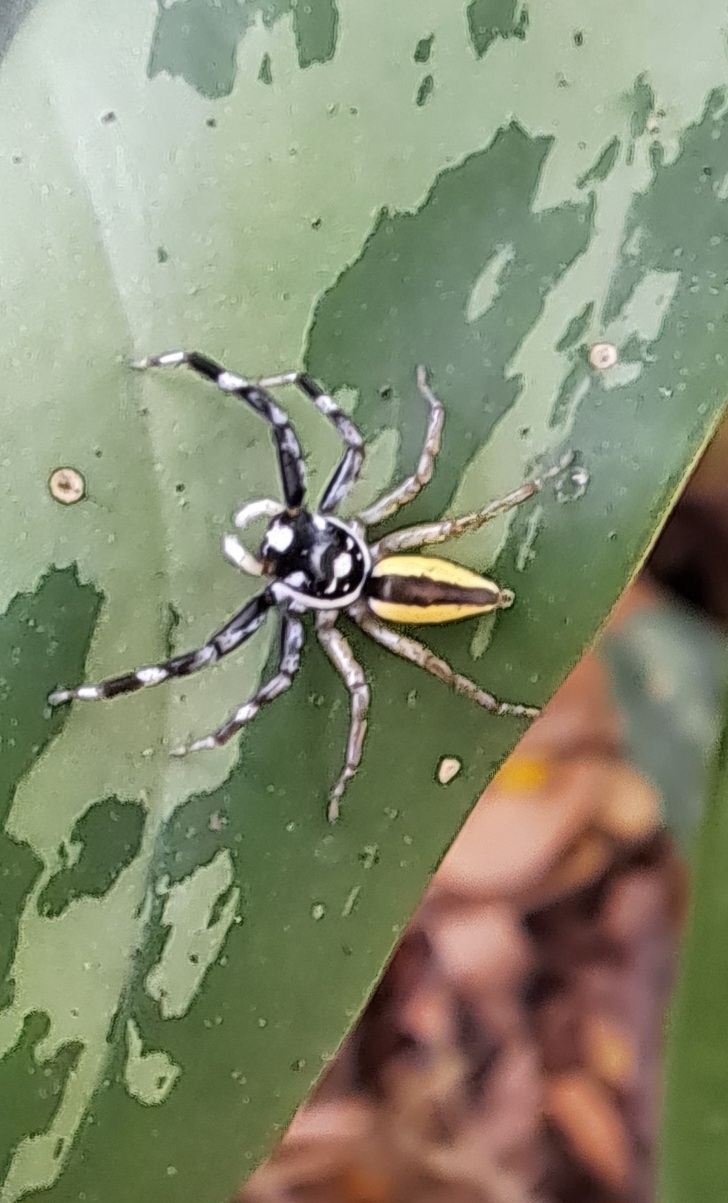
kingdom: Animalia
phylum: Arthropoda
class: Arachnida
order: Araneae
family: Salticidae
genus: Phintelloides
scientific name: Phintelloides versicolor
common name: Jumping spider
